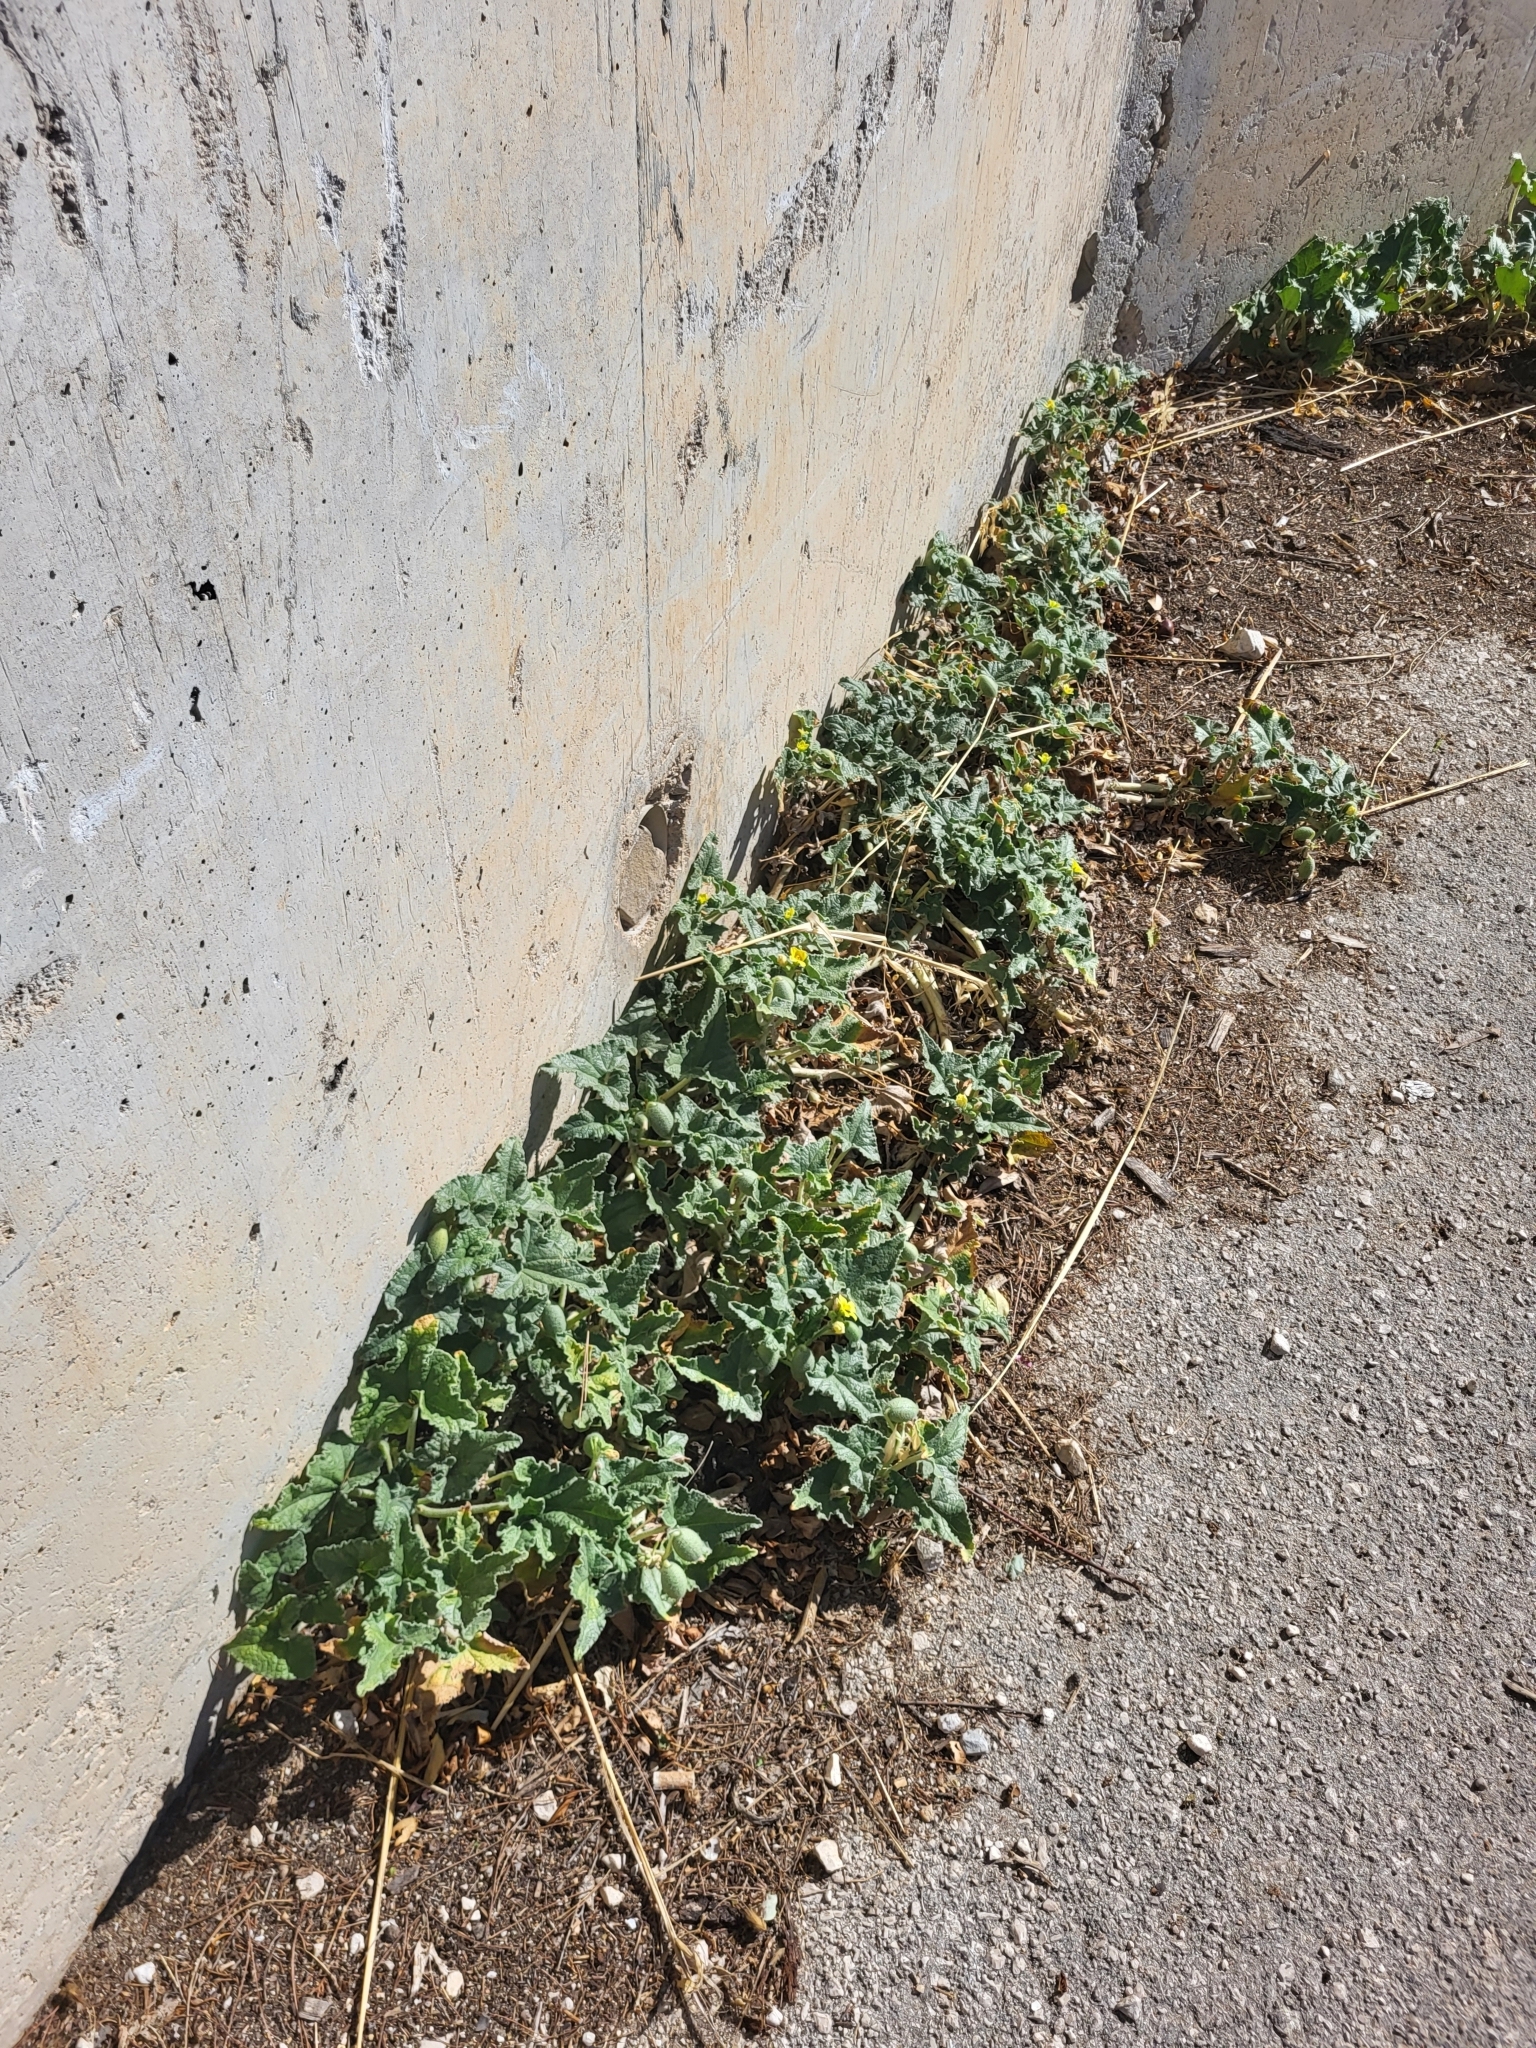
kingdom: Plantae
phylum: Tracheophyta
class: Magnoliopsida
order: Cucurbitales
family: Cucurbitaceae
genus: Ecballium
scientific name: Ecballium elaterium
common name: Squirting cucumber
